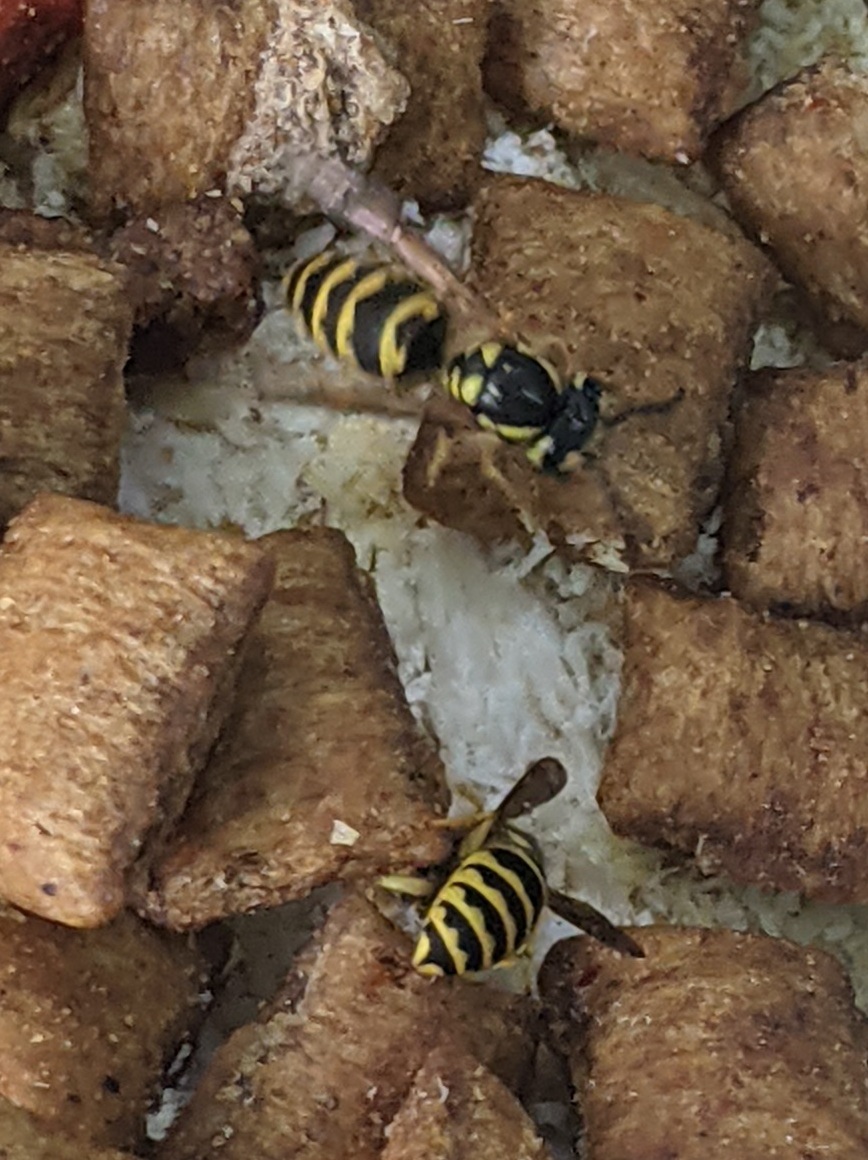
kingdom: Animalia
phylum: Arthropoda
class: Insecta
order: Hymenoptera
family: Vespidae
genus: Vespula
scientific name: Vespula flavopilosa
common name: Downy yellowjacket
